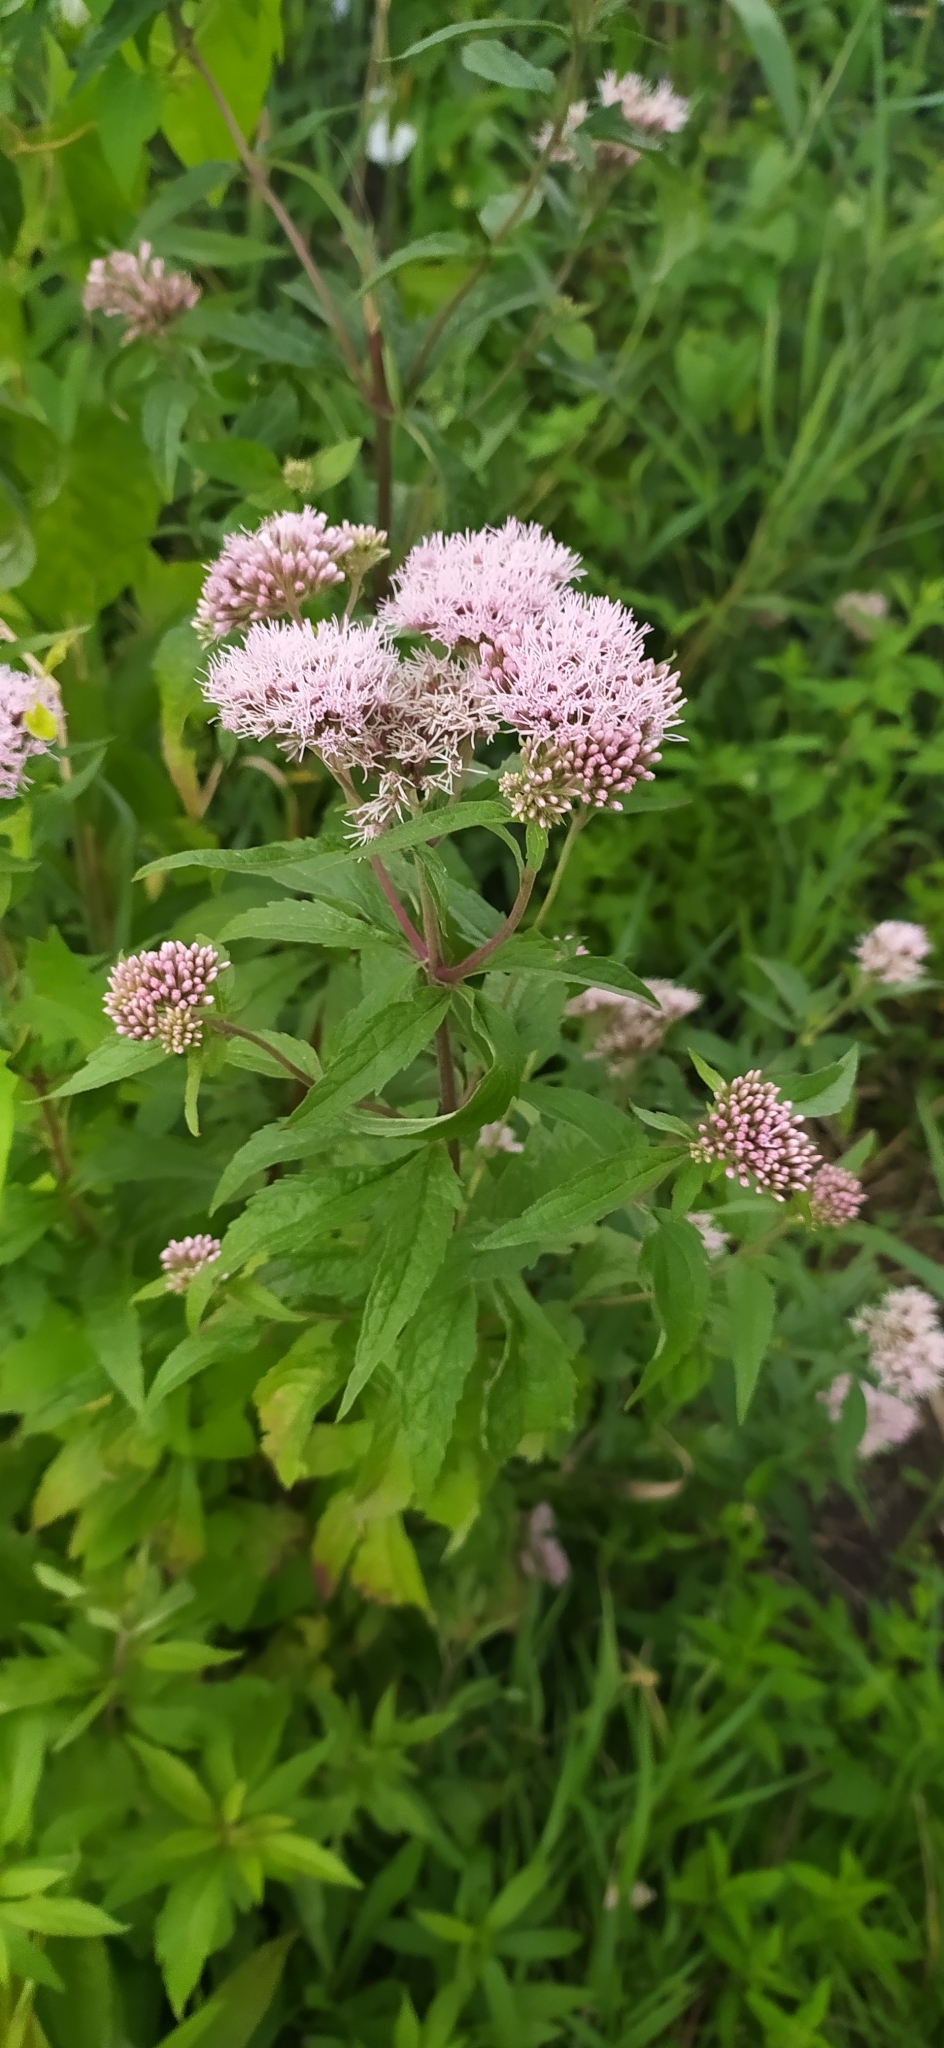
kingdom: Plantae
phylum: Tracheophyta
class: Magnoliopsida
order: Asterales
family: Asteraceae
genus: Eupatorium
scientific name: Eupatorium cannabinum
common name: Hemp-agrimony
